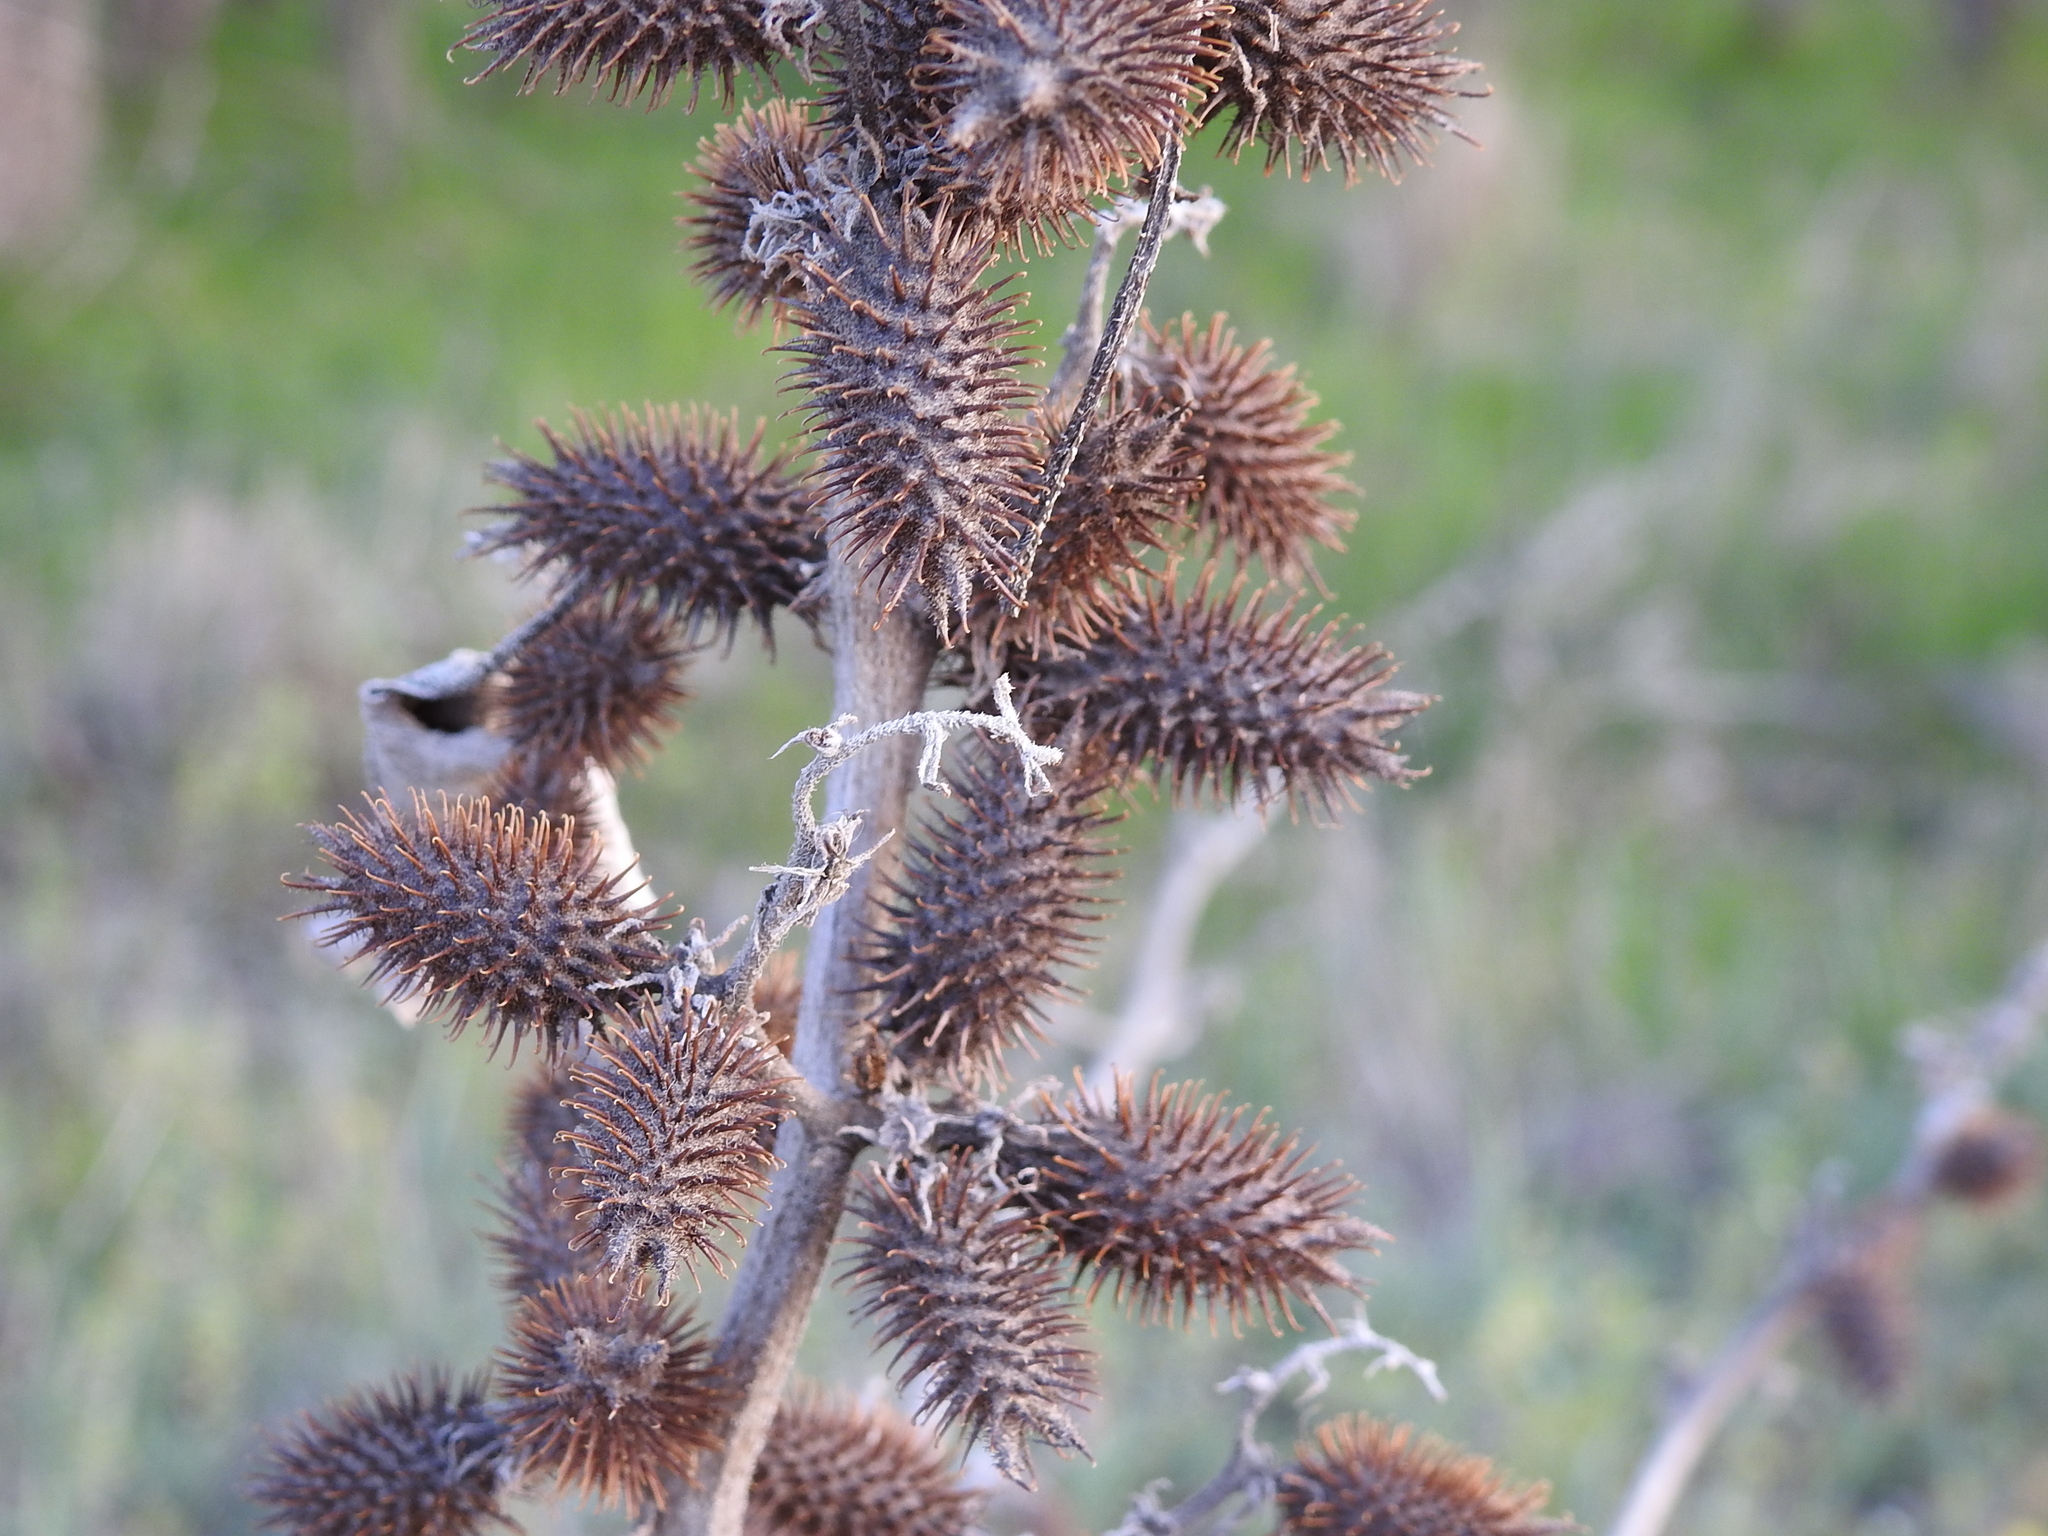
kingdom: Plantae
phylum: Tracheophyta
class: Magnoliopsida
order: Asterales
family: Asteraceae
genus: Xanthium
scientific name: Xanthium orientale
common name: Californian burr
